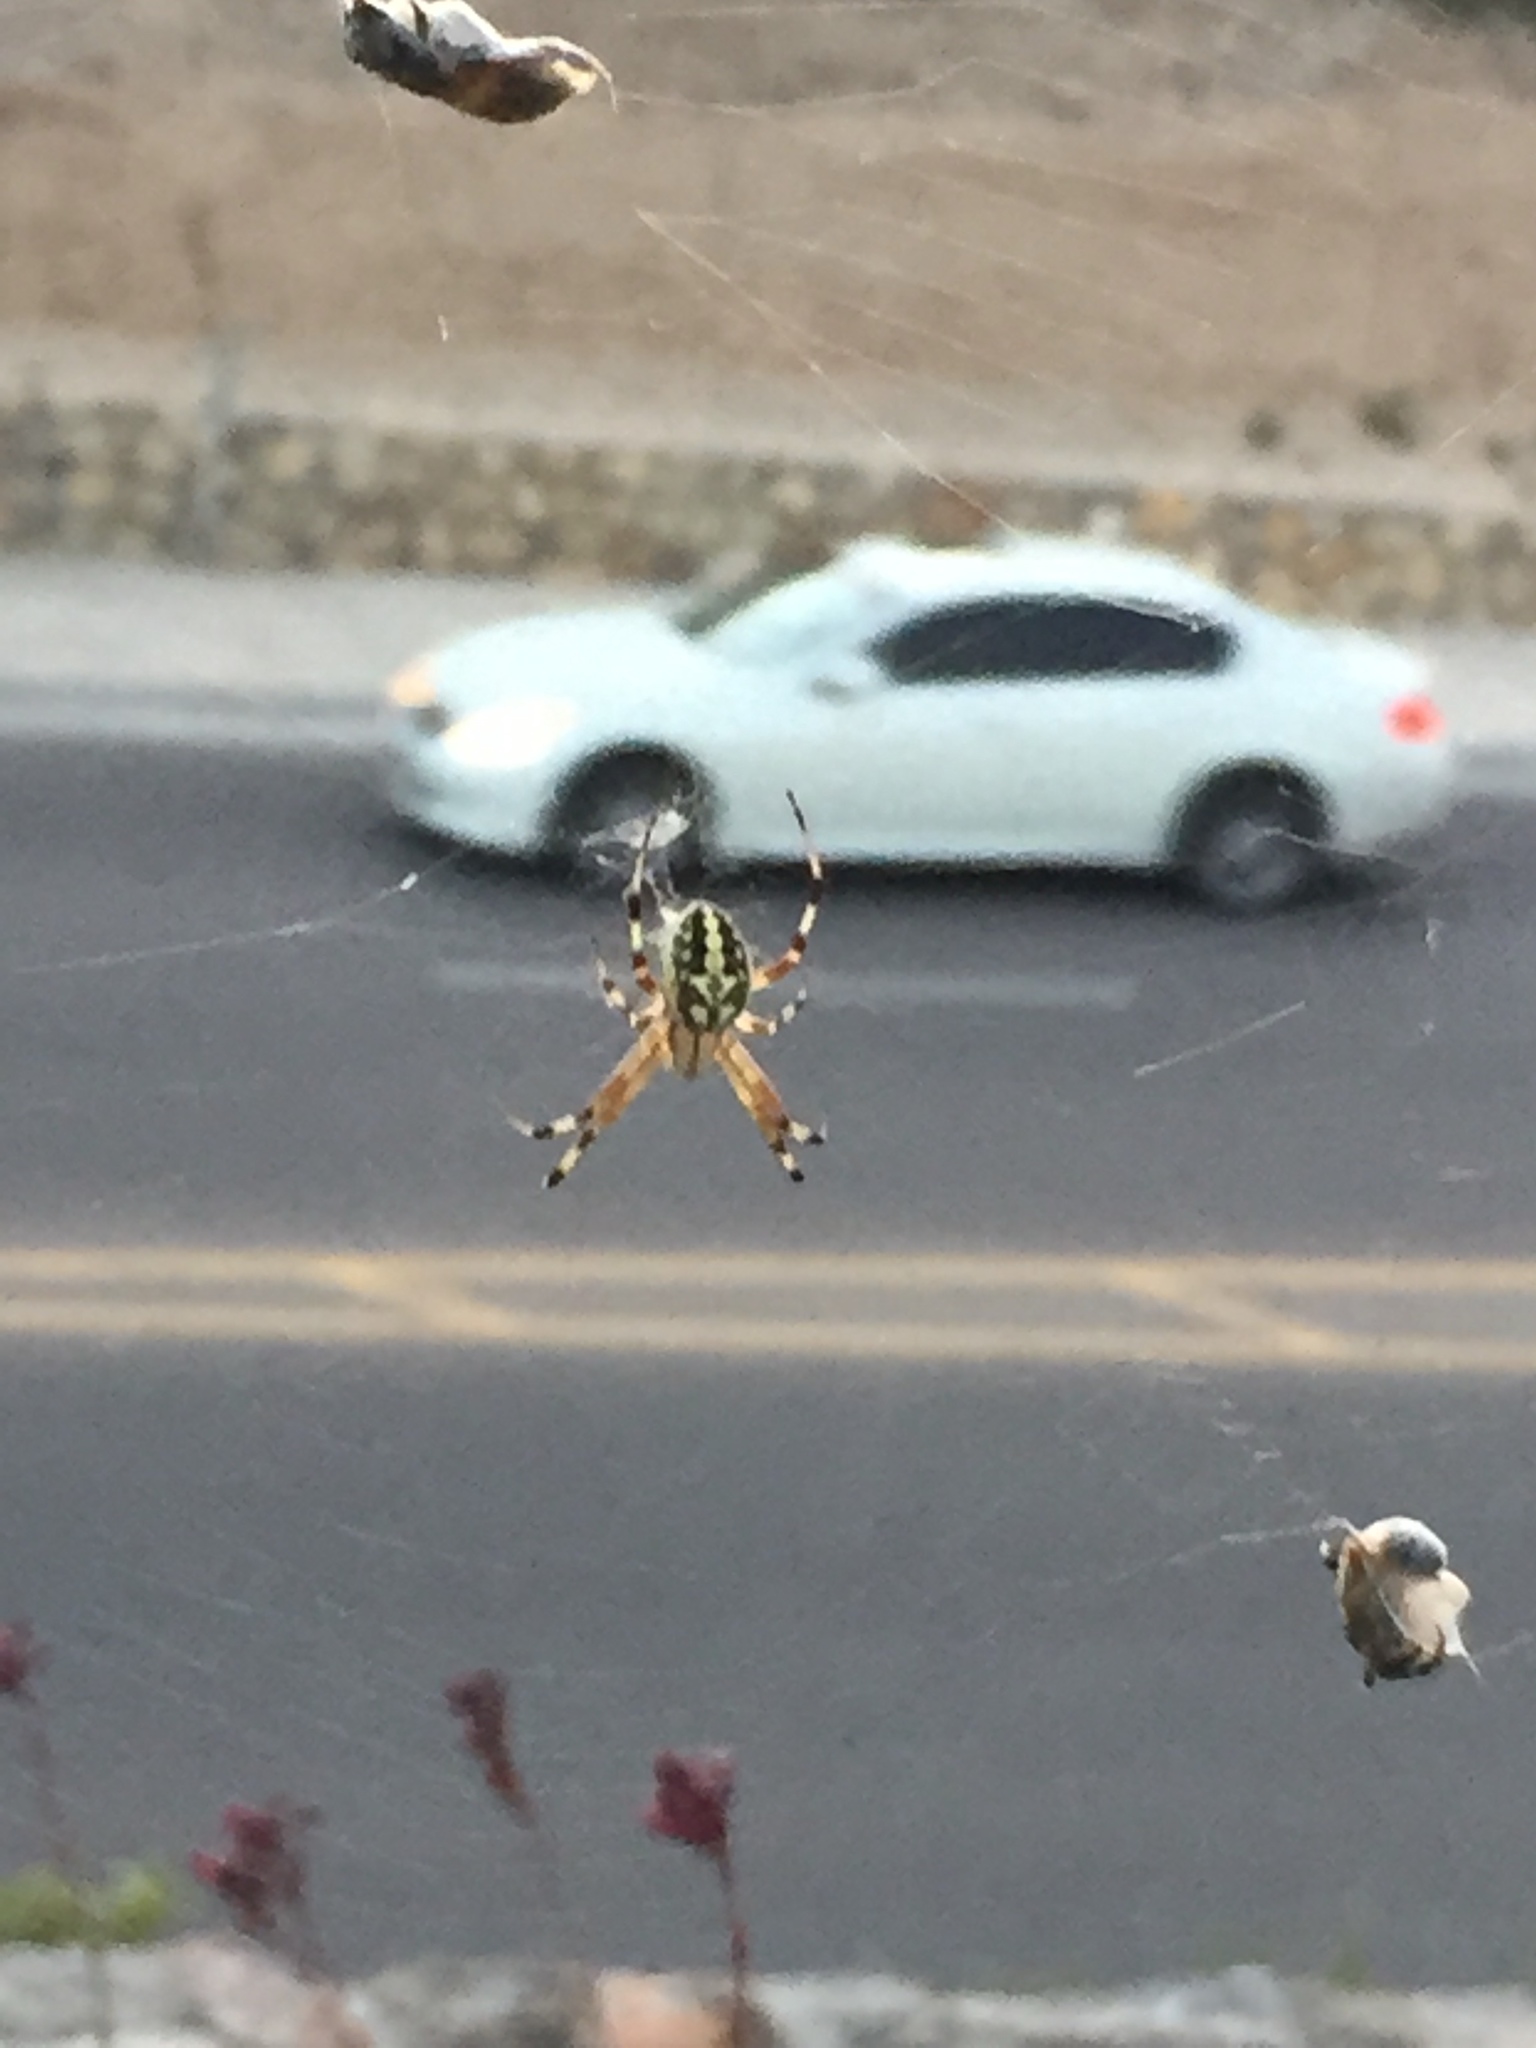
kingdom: Animalia
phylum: Arthropoda
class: Arachnida
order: Araneae
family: Araneidae
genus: Neoscona
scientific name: Neoscona oaxacensis
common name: Orb weavers
